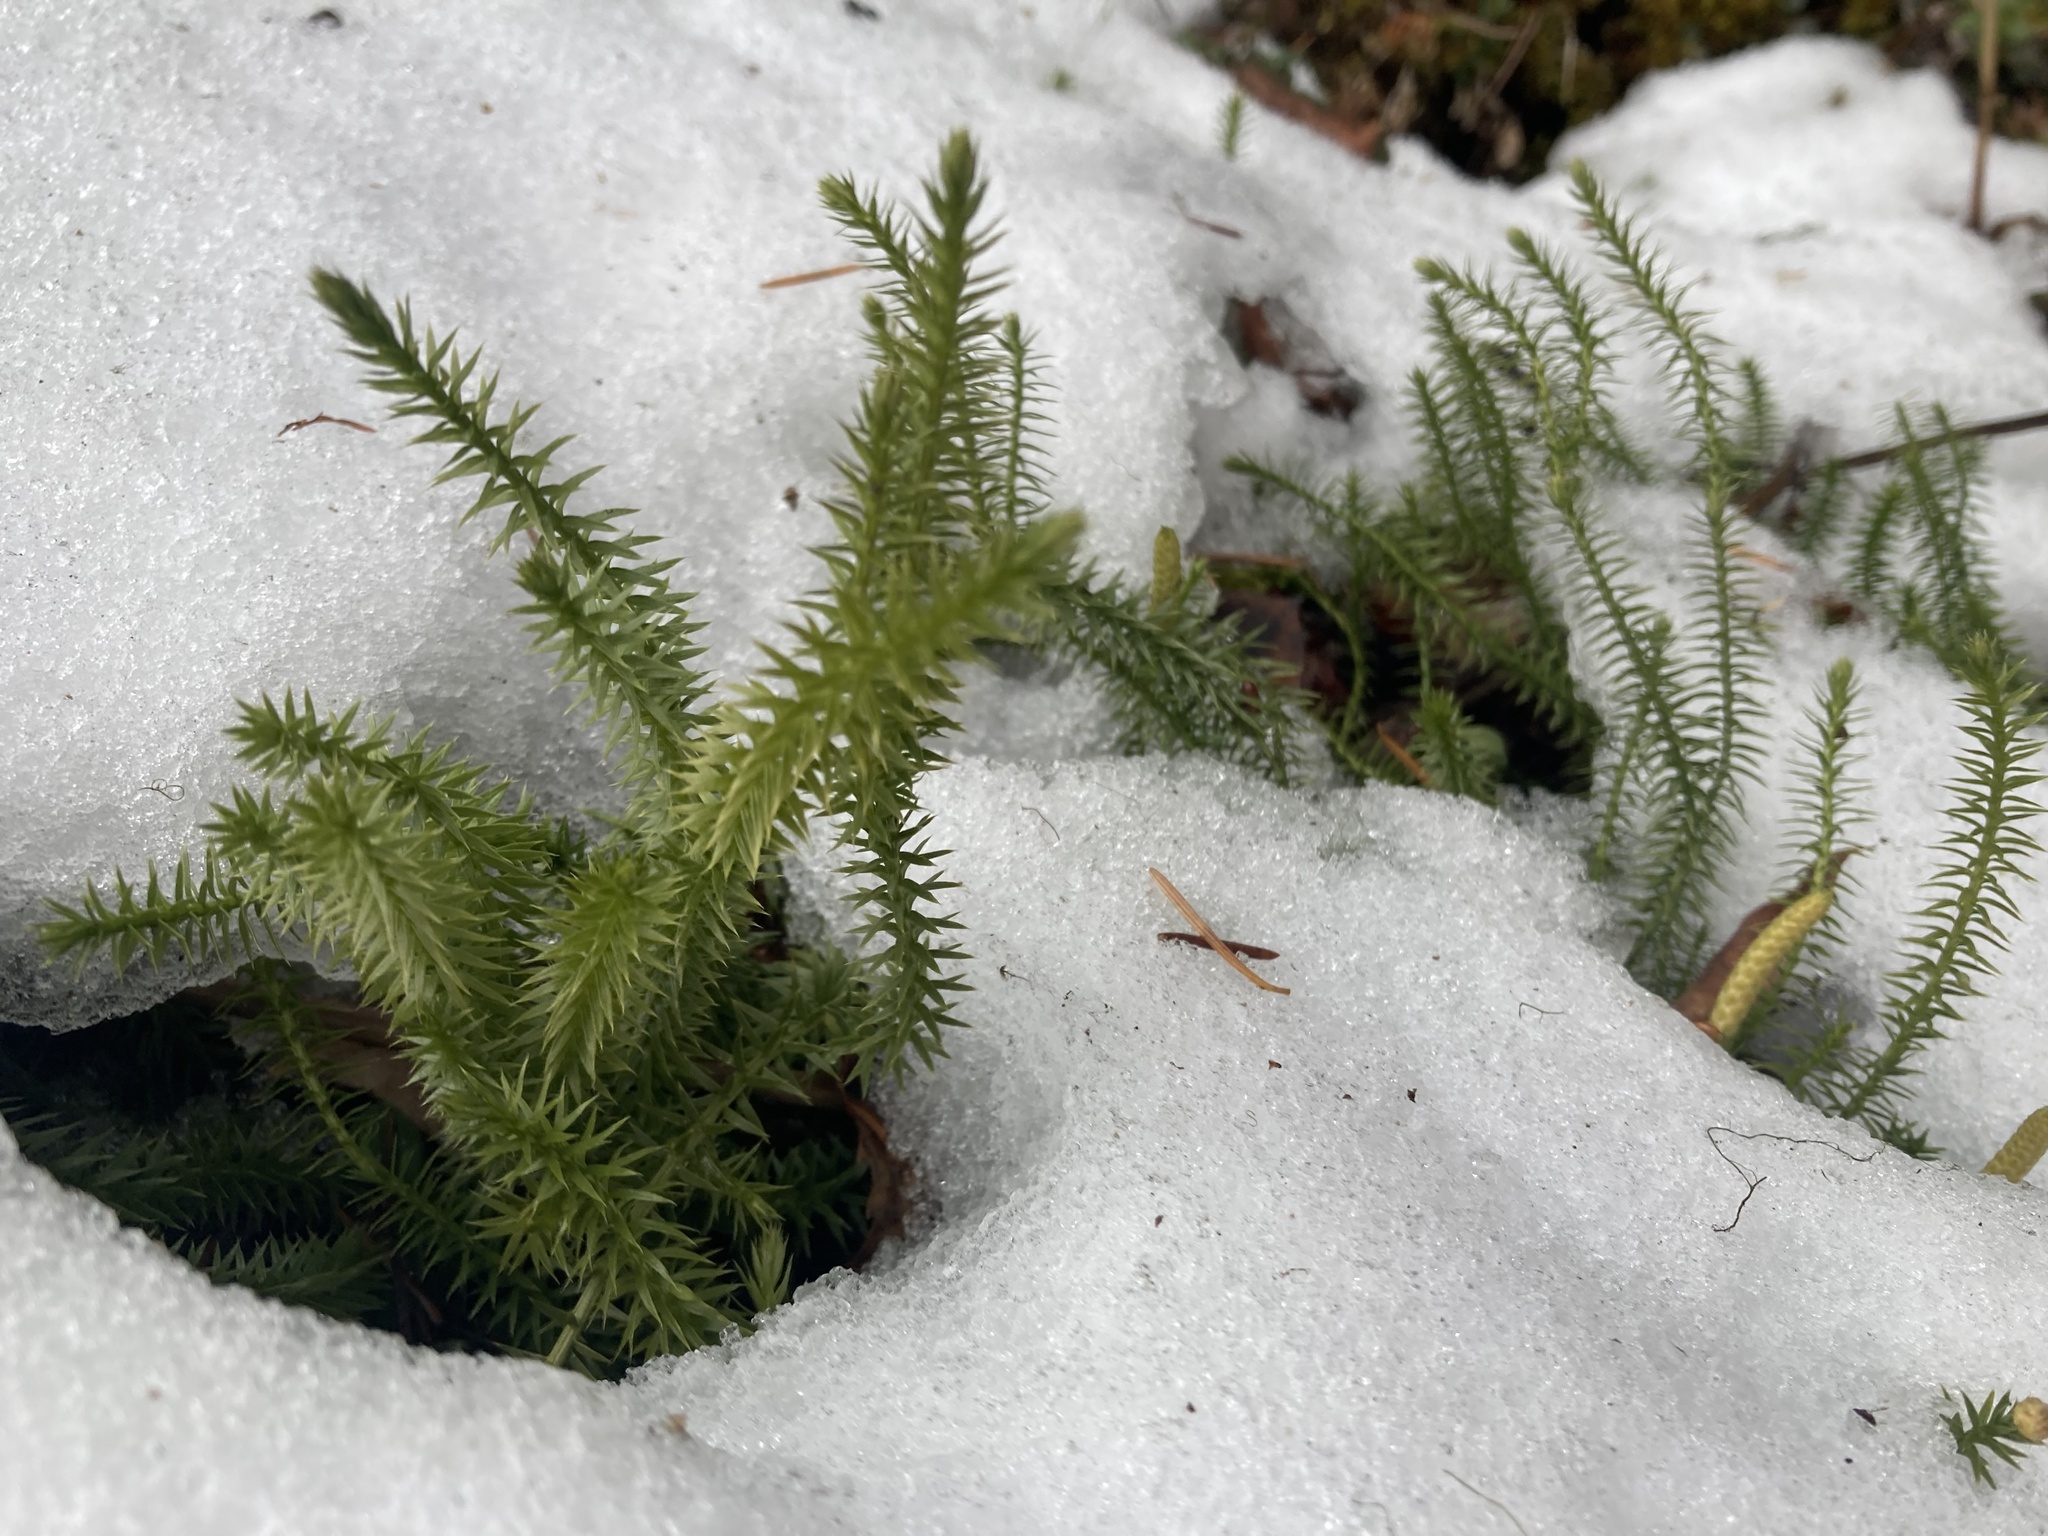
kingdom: Plantae
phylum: Tracheophyta
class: Lycopodiopsida
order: Lycopodiales
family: Lycopodiaceae
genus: Spinulum
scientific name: Spinulum annotinum
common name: Interrupted club-moss
